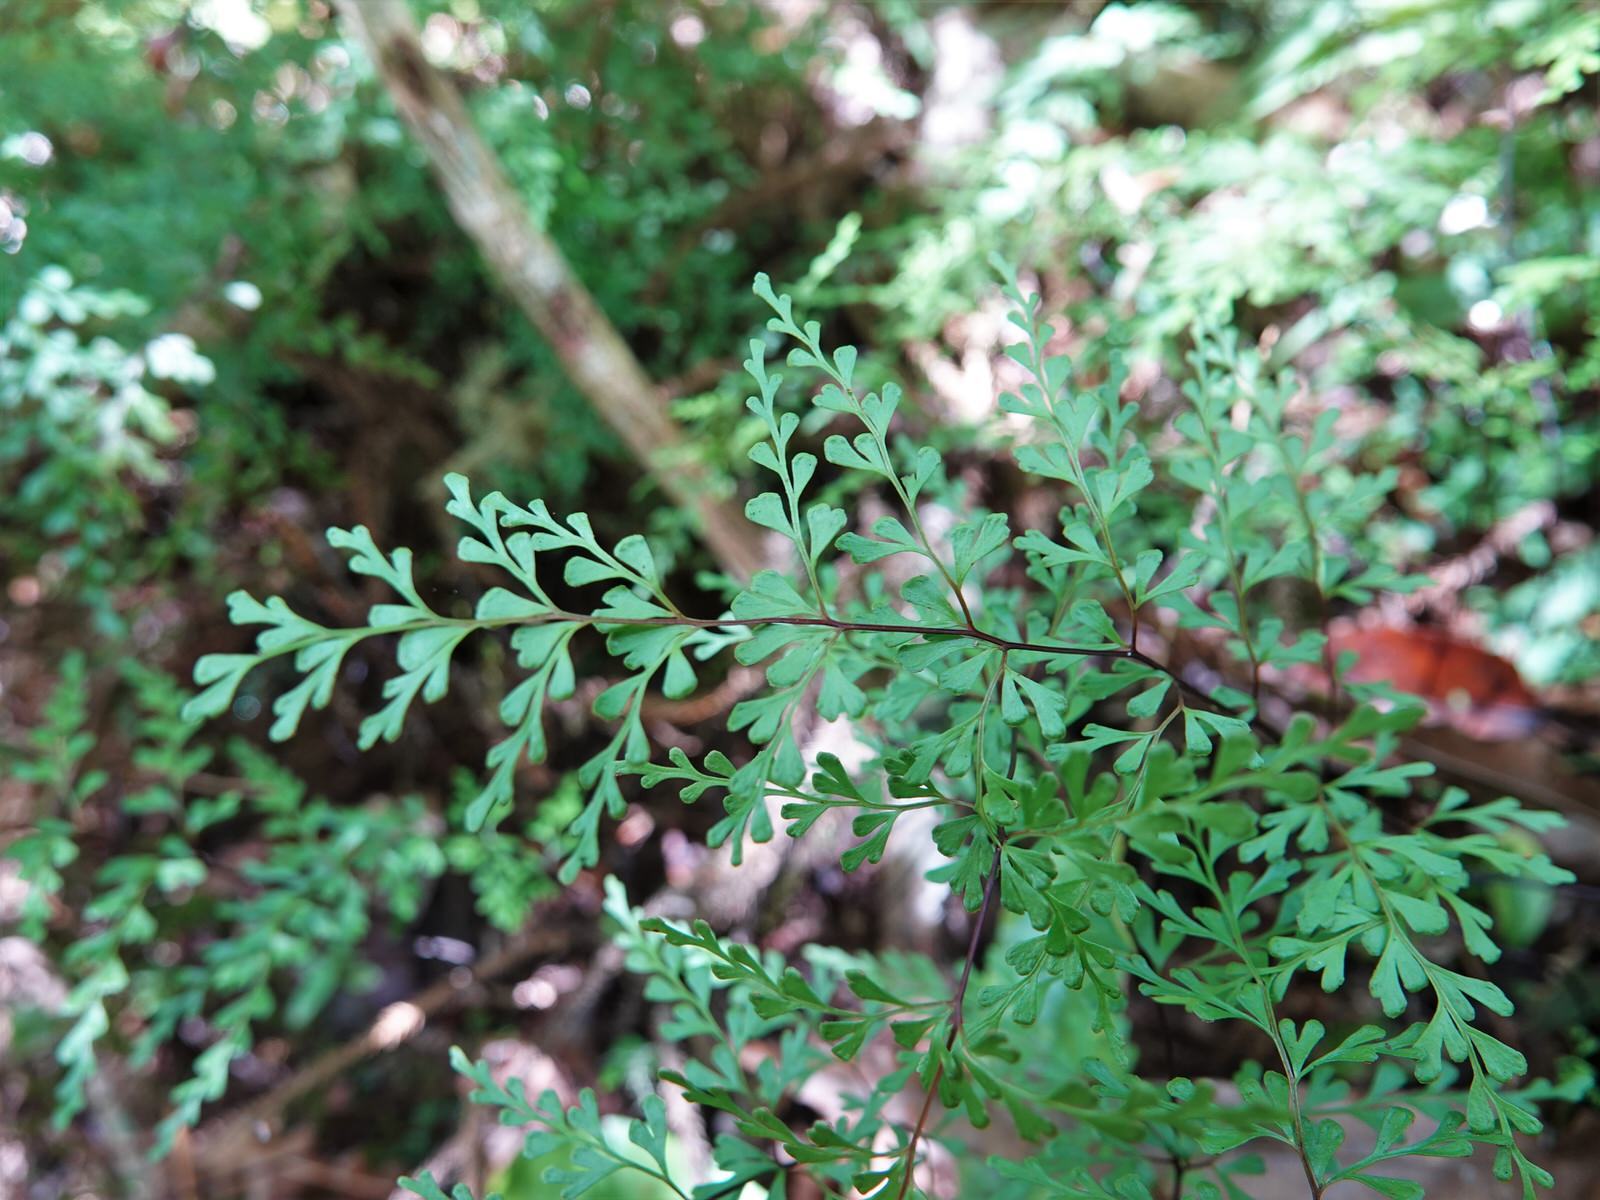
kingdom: Plantae
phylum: Tracheophyta
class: Polypodiopsida
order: Polypodiales
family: Lindsaeaceae
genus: Lindsaea
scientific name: Lindsaea trichomanoides
